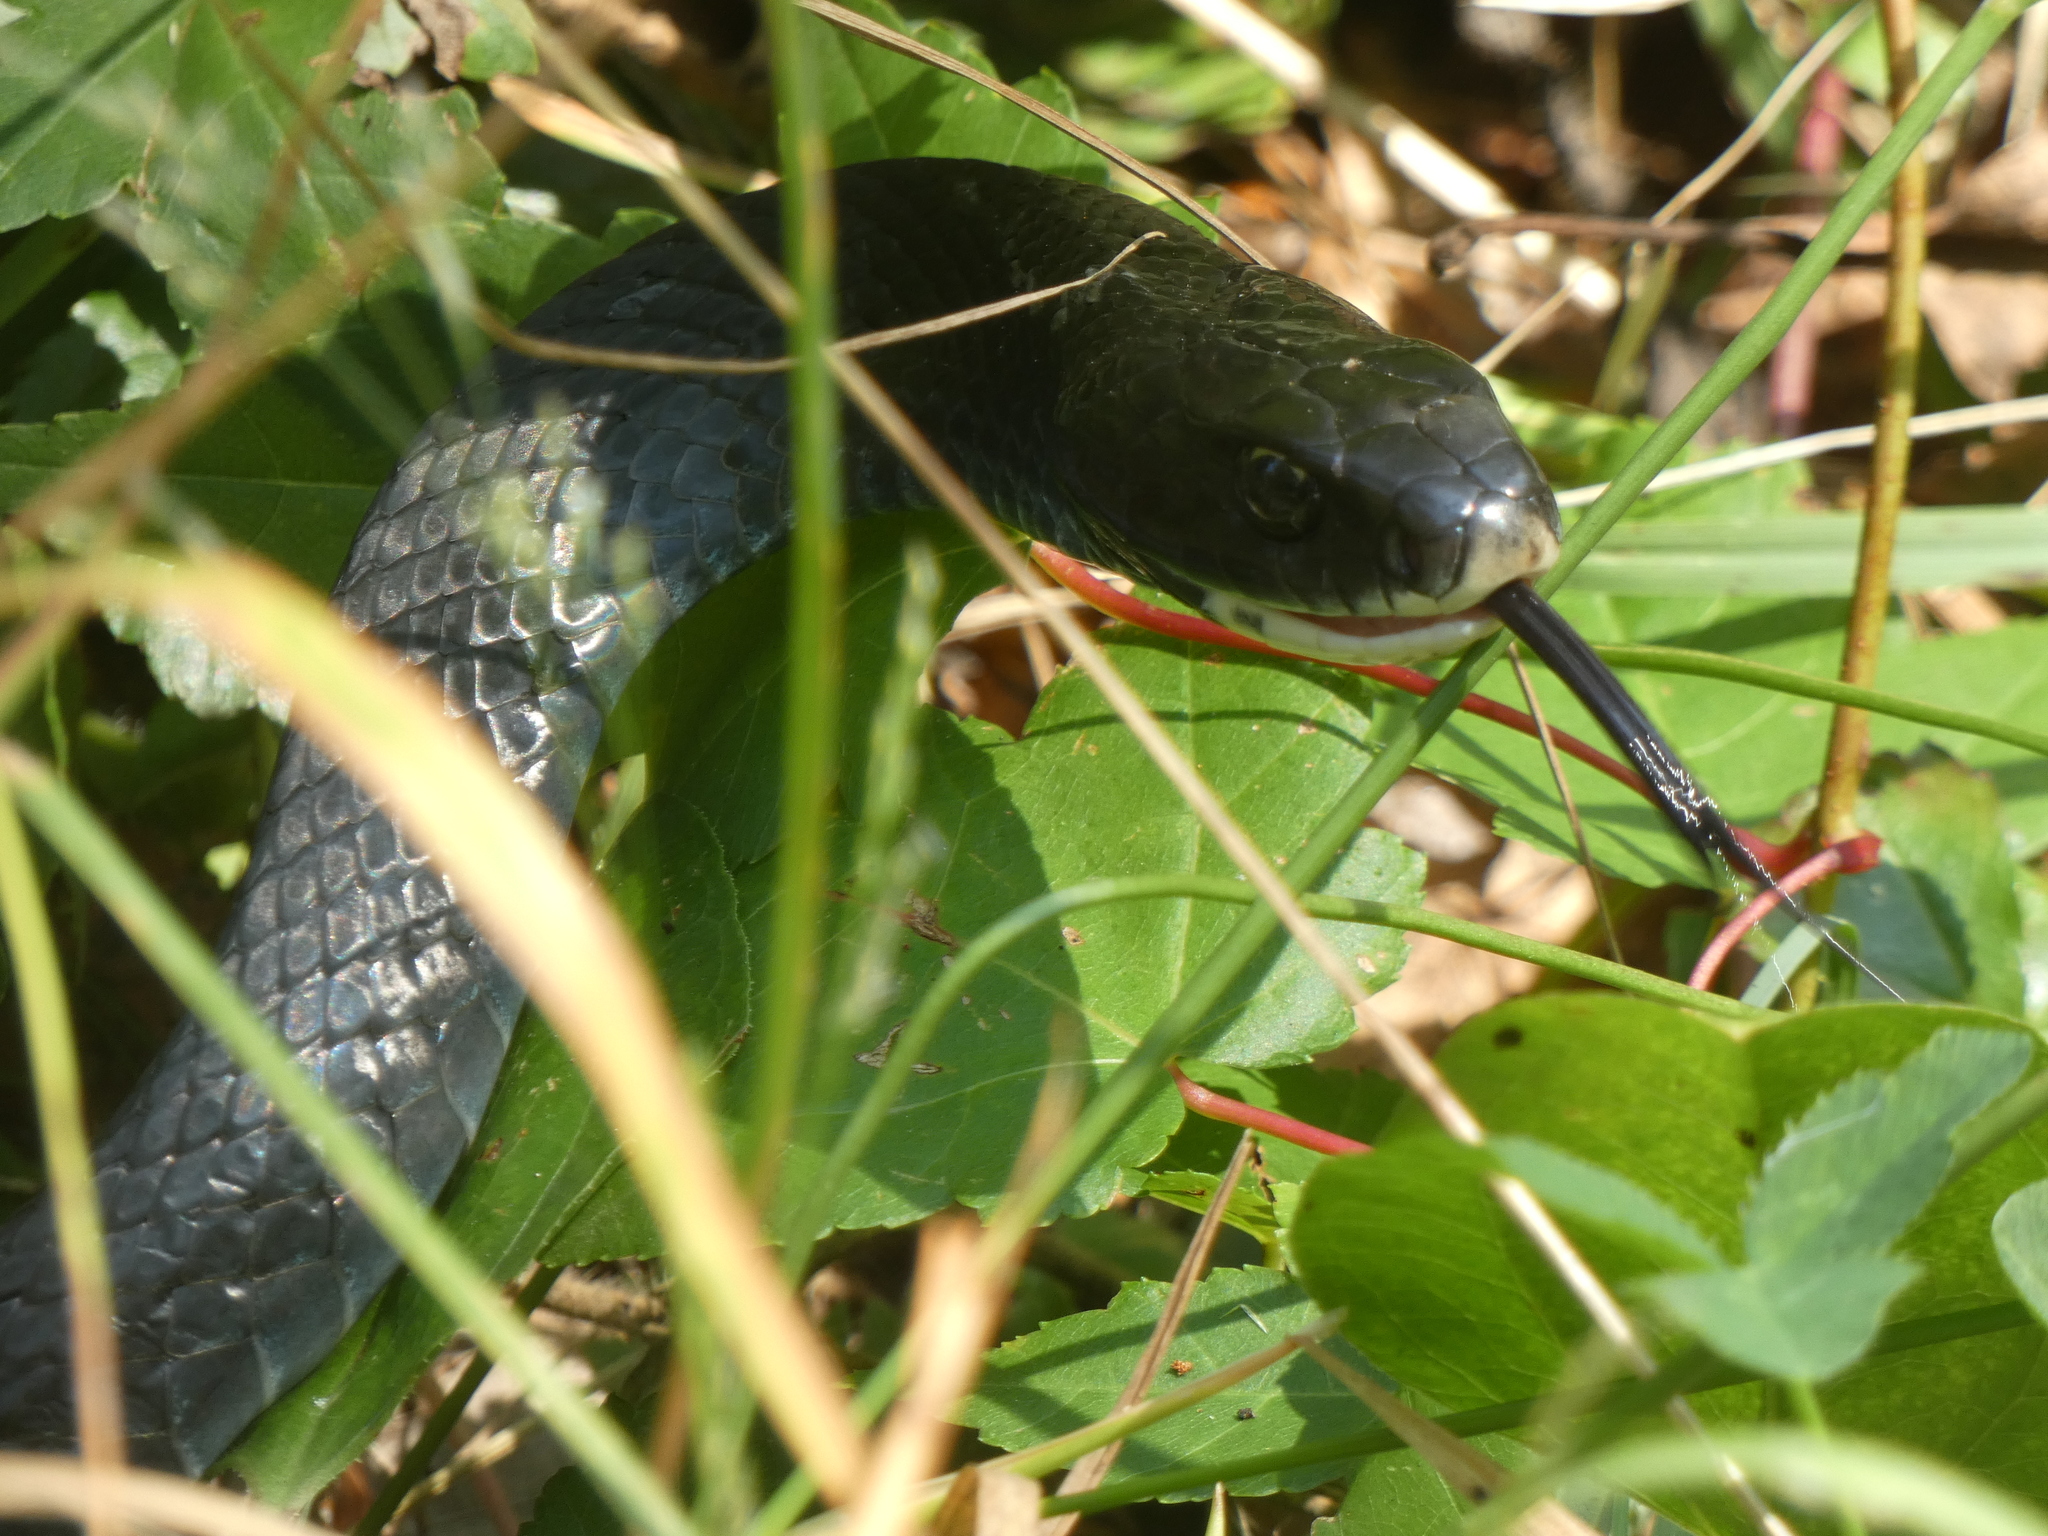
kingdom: Animalia
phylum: Chordata
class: Squamata
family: Colubridae
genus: Coluber
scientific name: Coluber constrictor
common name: Eastern racer
